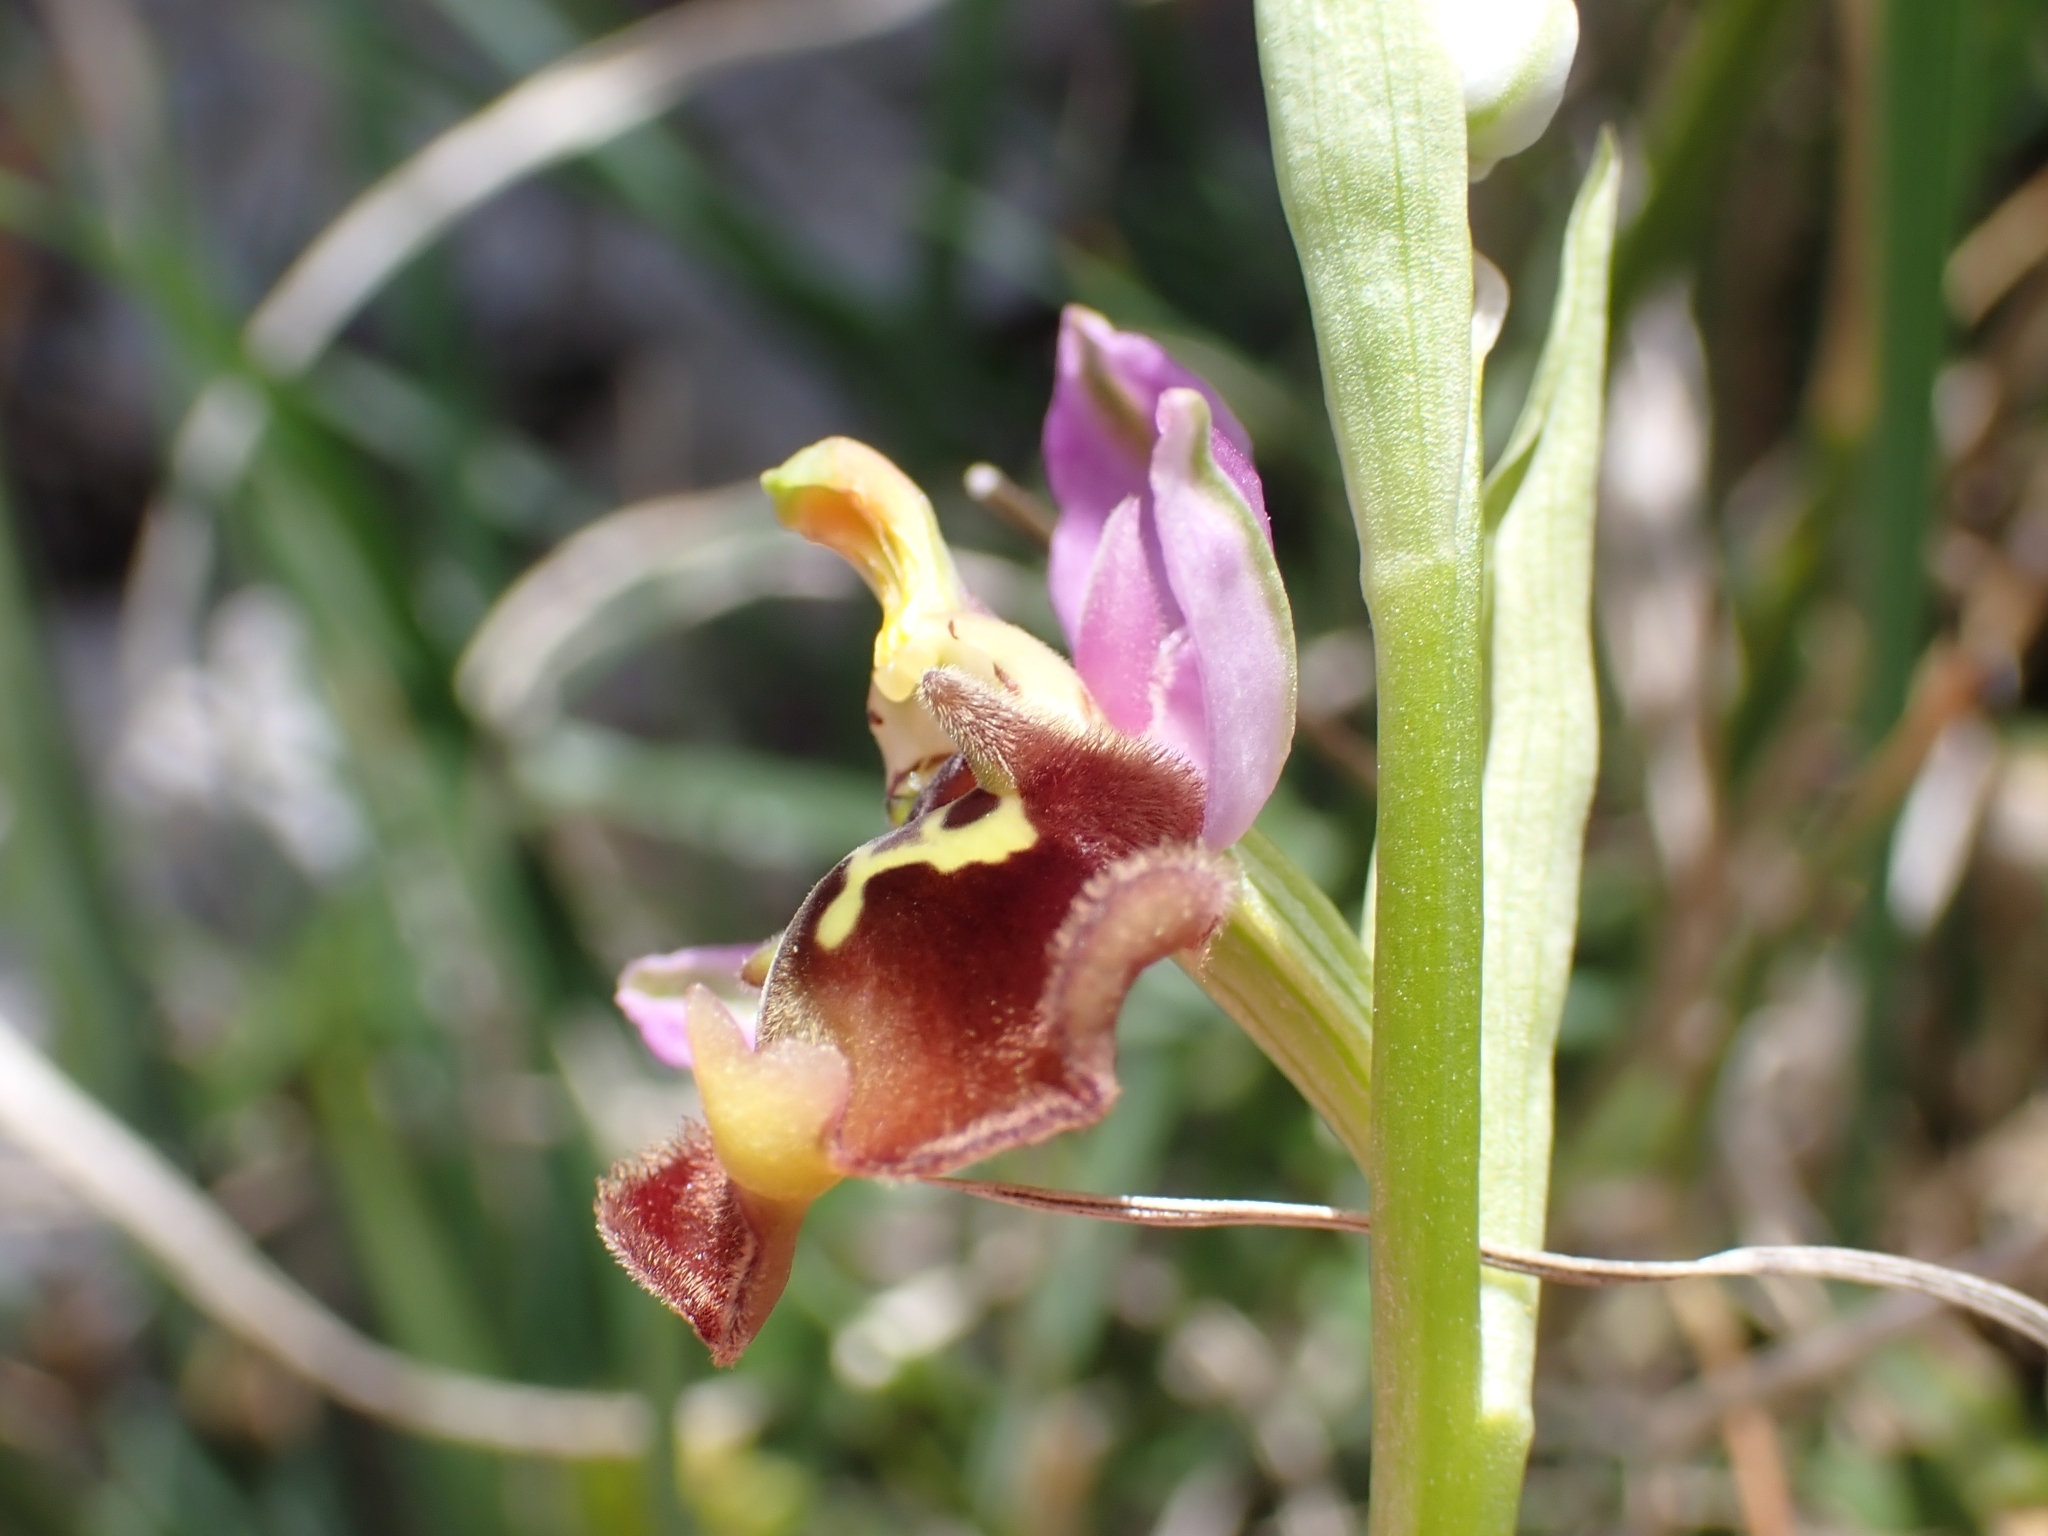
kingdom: Plantae
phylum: Tracheophyta
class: Liliopsida
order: Asparagales
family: Orchidaceae
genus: Ophrys
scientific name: Ophrys holosericea
